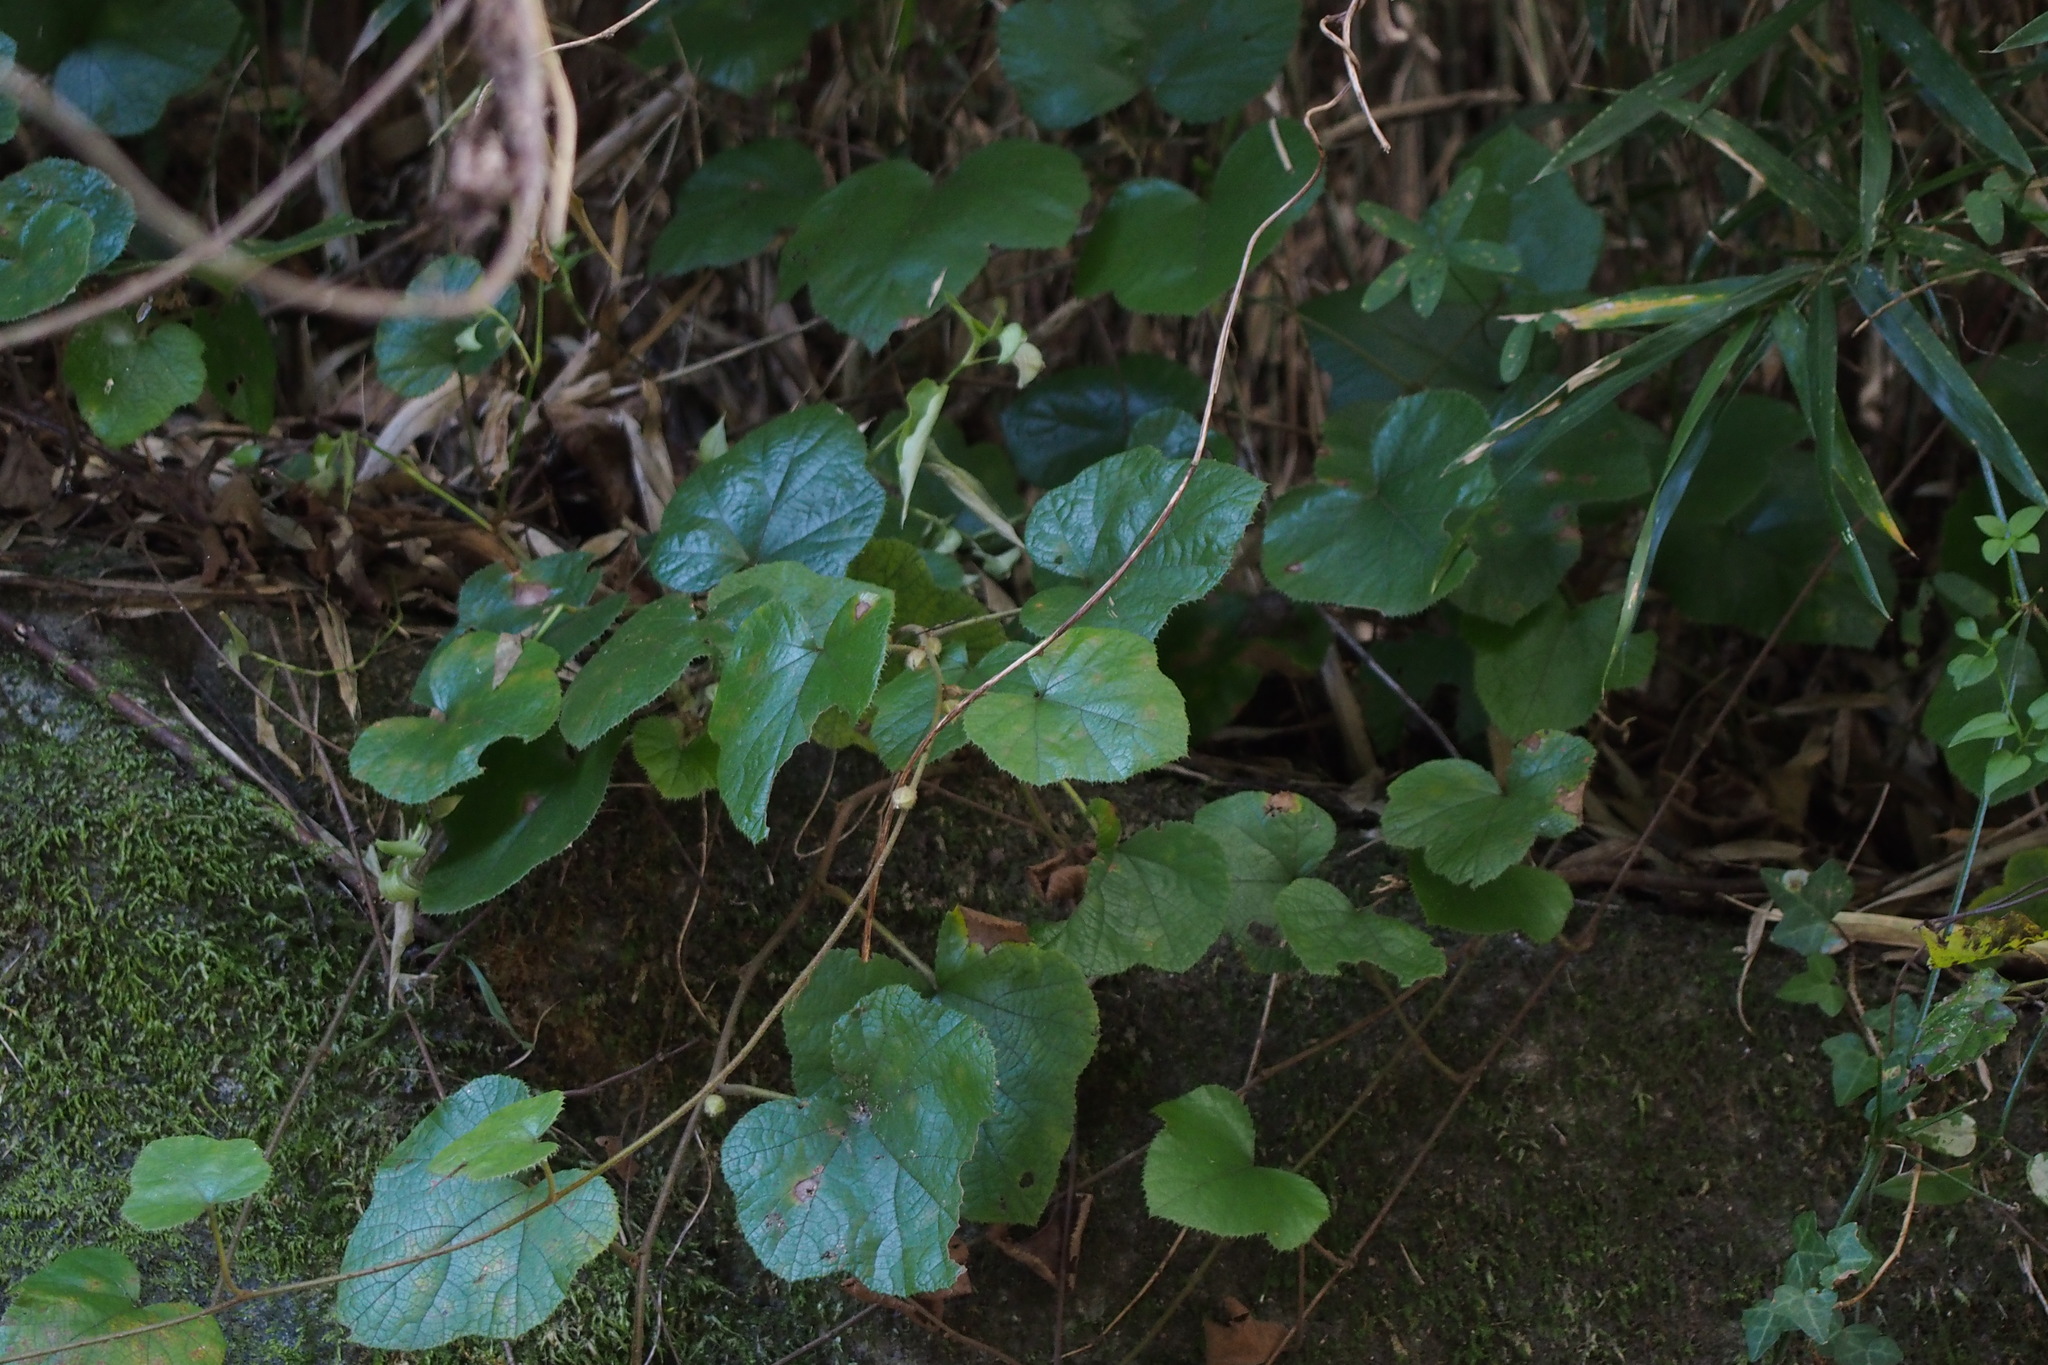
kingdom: Plantae
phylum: Tracheophyta
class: Magnoliopsida
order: Rosales
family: Rosaceae
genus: Rubus
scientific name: Rubus buergeri
